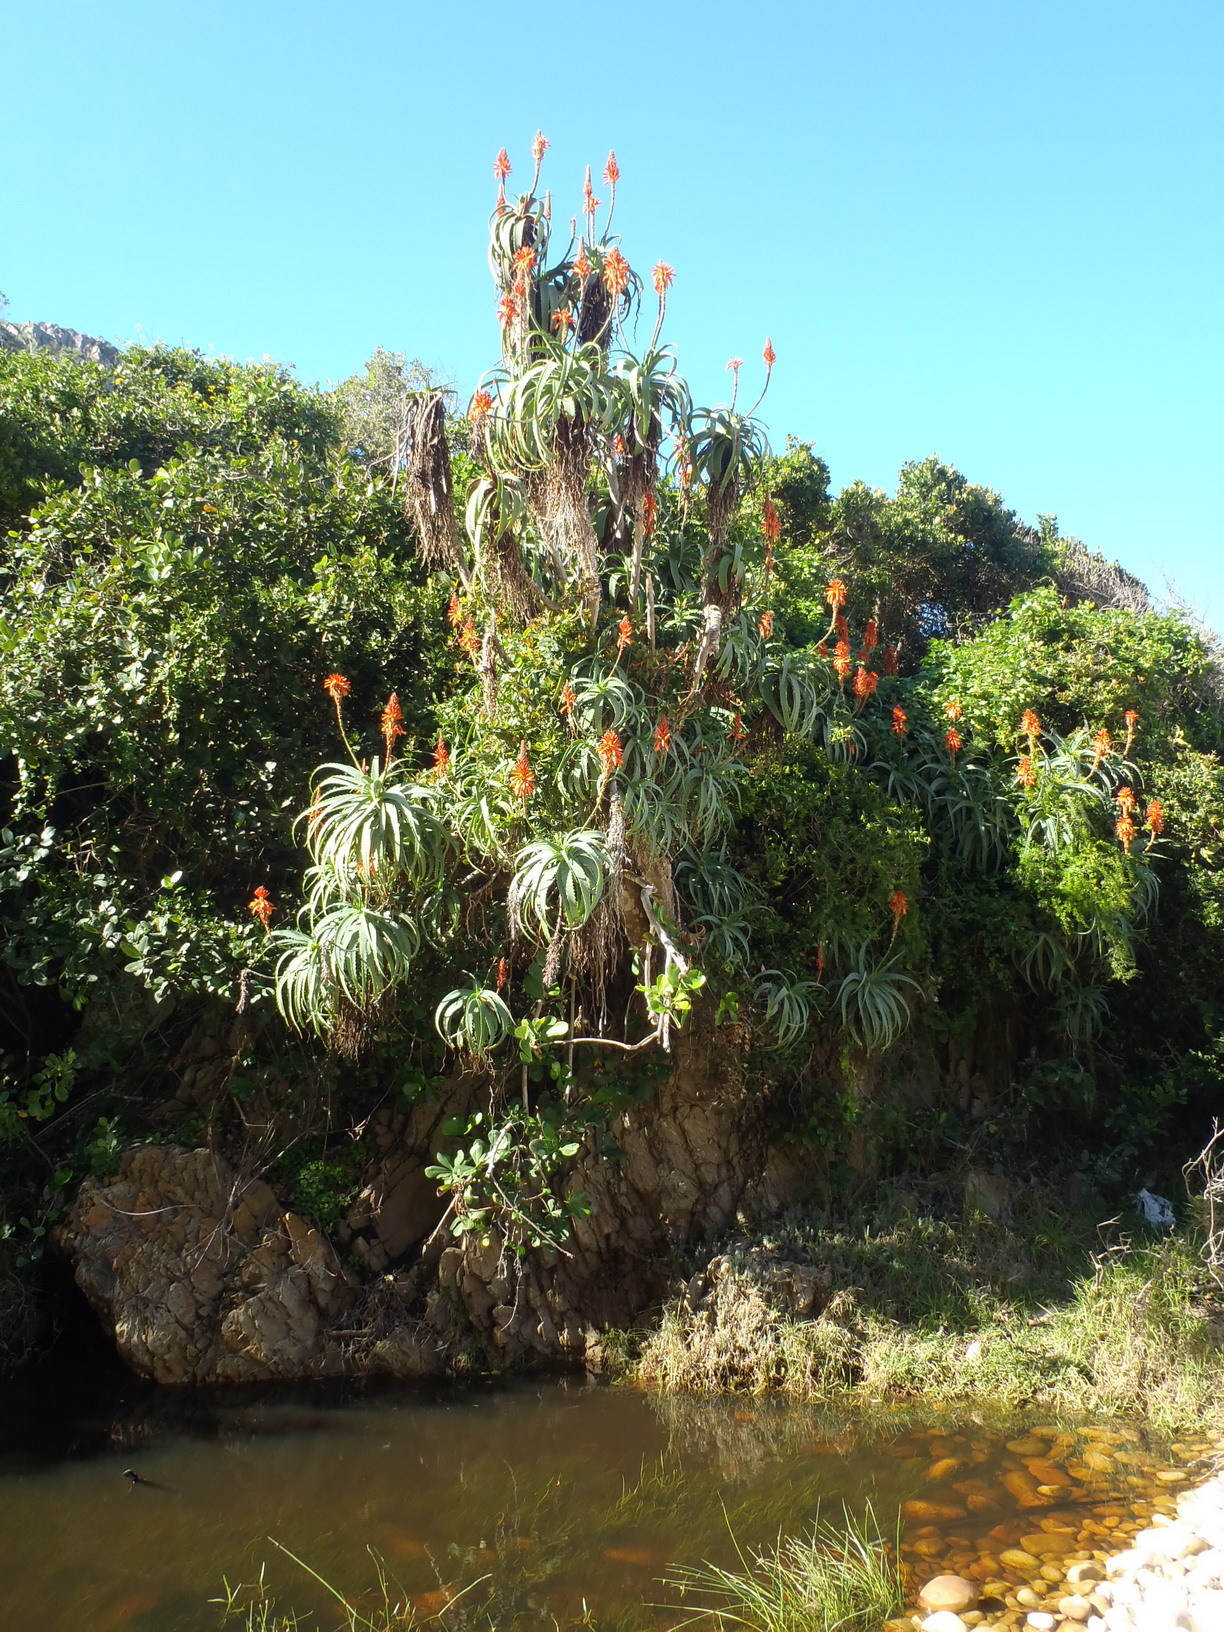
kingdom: Plantae
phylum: Tracheophyta
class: Liliopsida
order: Asparagales
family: Asphodelaceae
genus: Aloe
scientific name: Aloe arborescens
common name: Candelabra aloe
